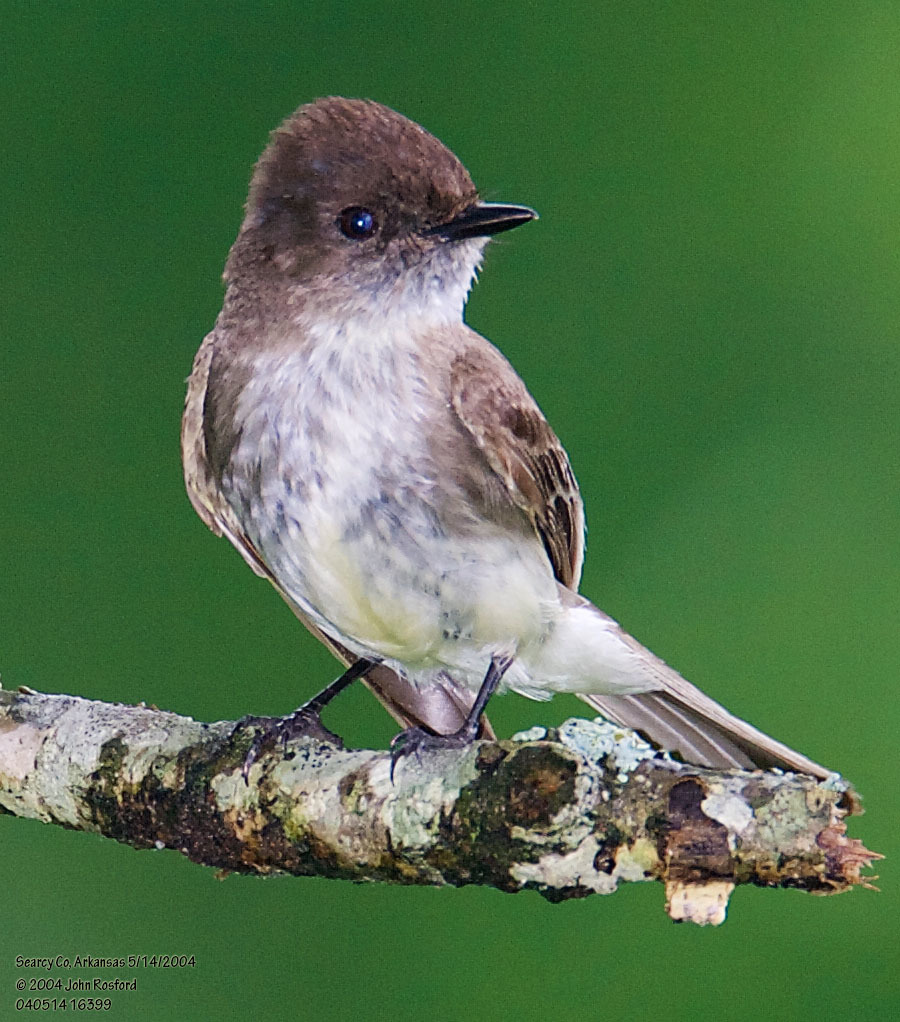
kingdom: Animalia
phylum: Chordata
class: Aves
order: Passeriformes
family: Tyrannidae
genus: Sayornis
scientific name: Sayornis phoebe
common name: Eastern phoebe
